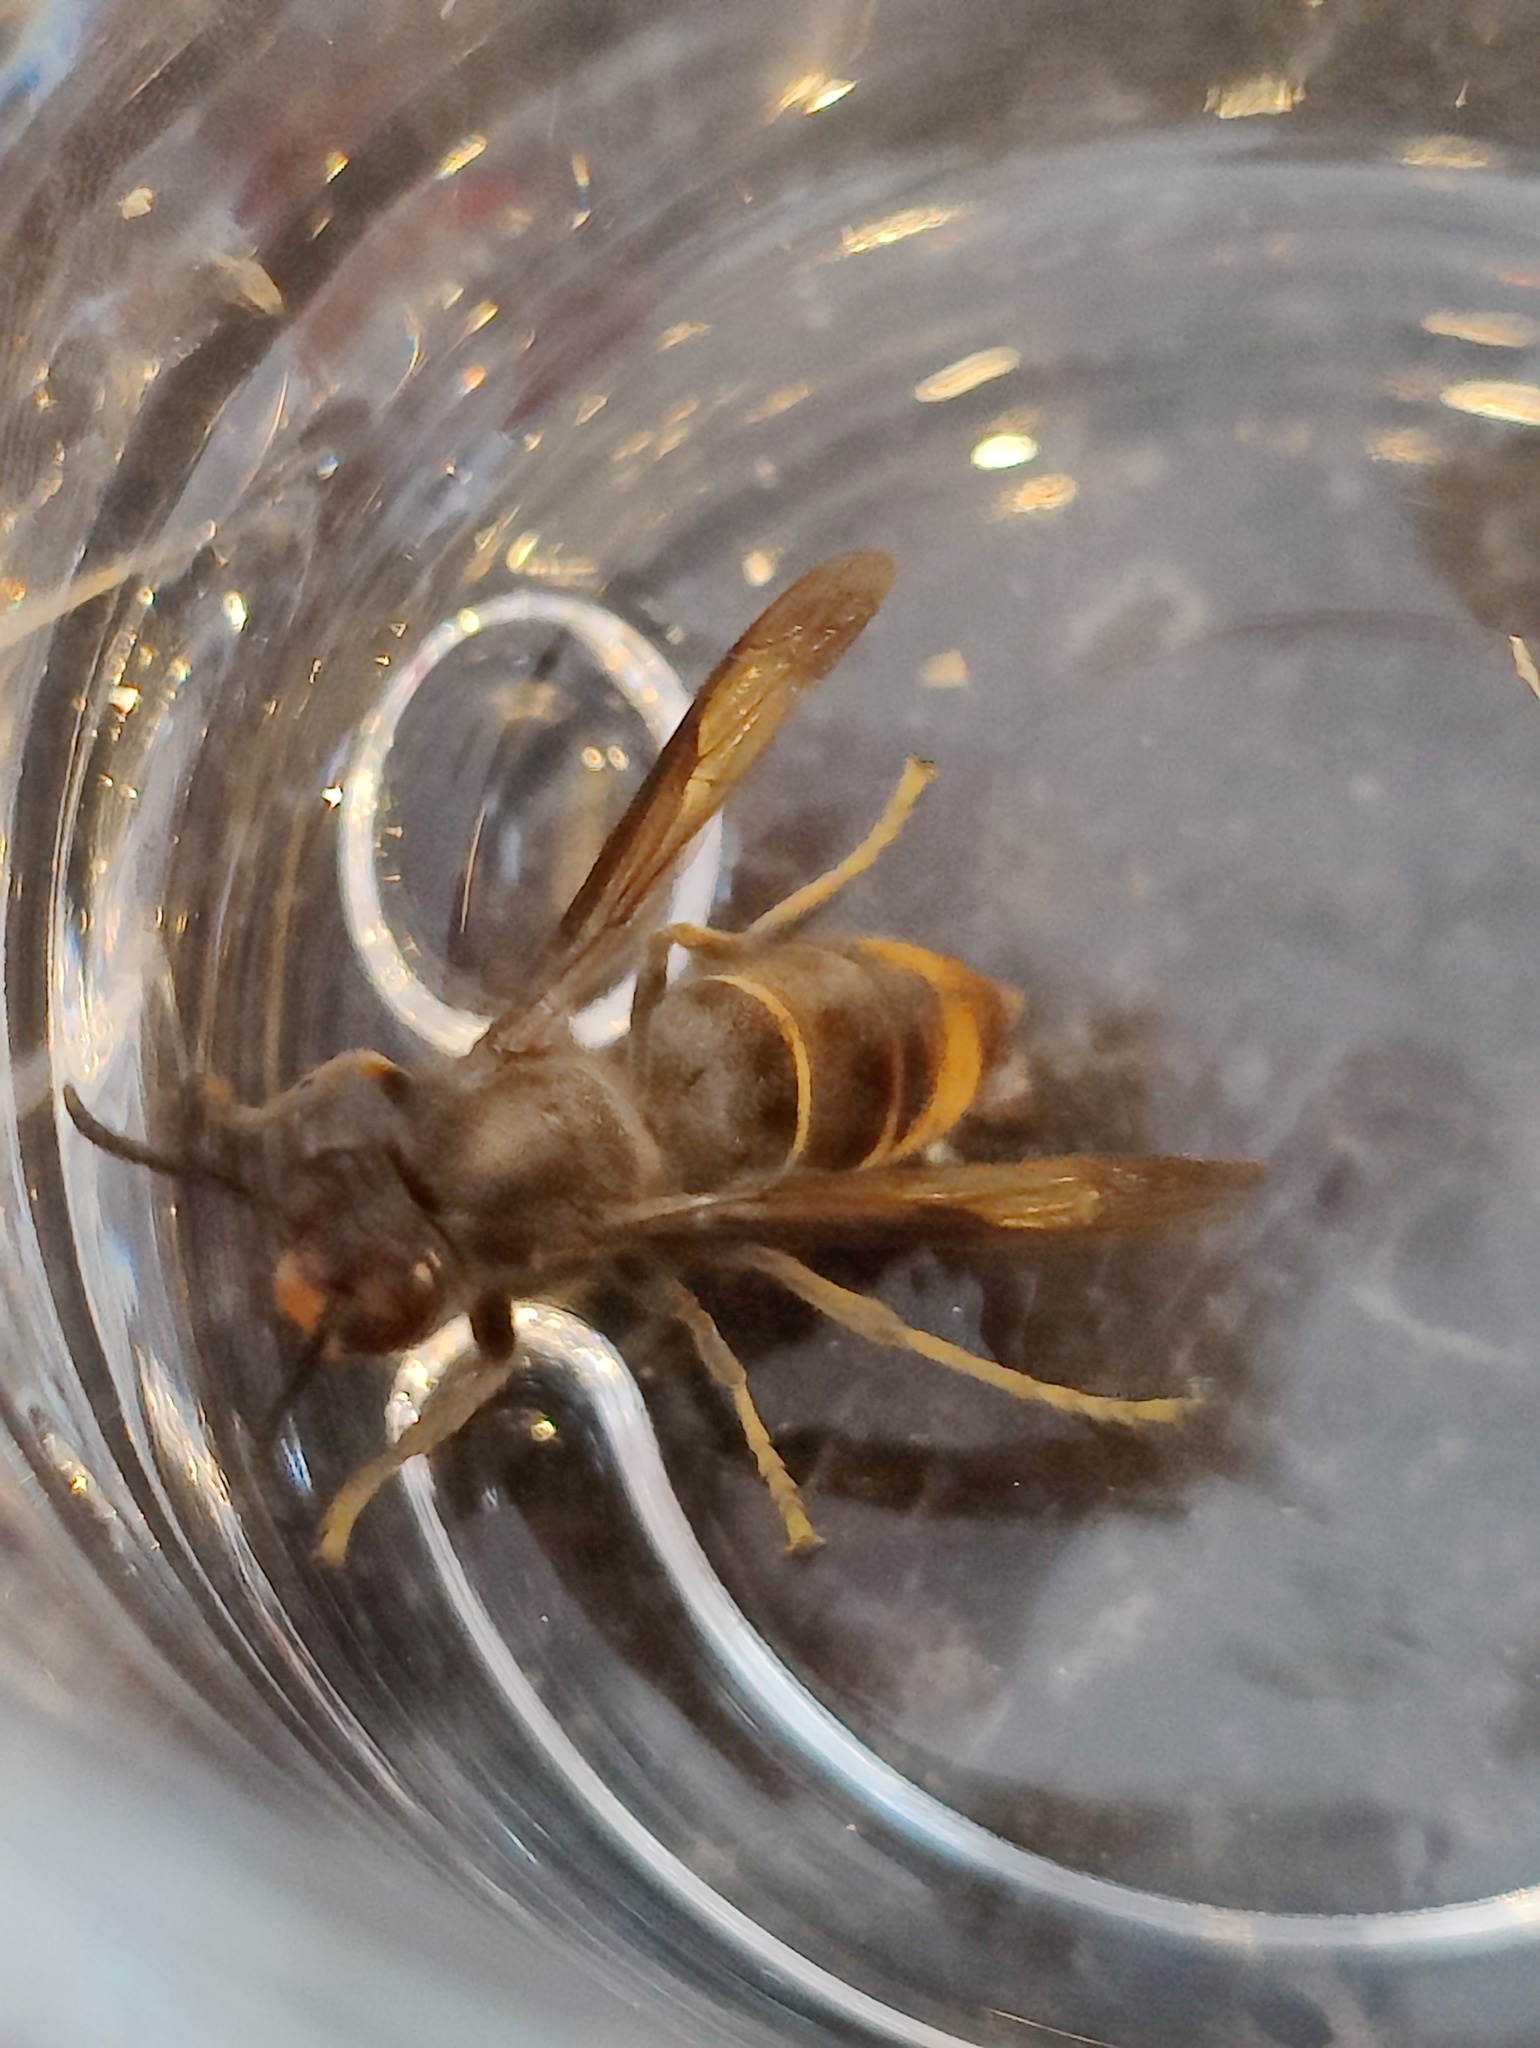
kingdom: Animalia
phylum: Arthropoda
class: Insecta
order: Hymenoptera
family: Vespidae
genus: Vespa
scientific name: Vespa velutina
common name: Asian hornet
